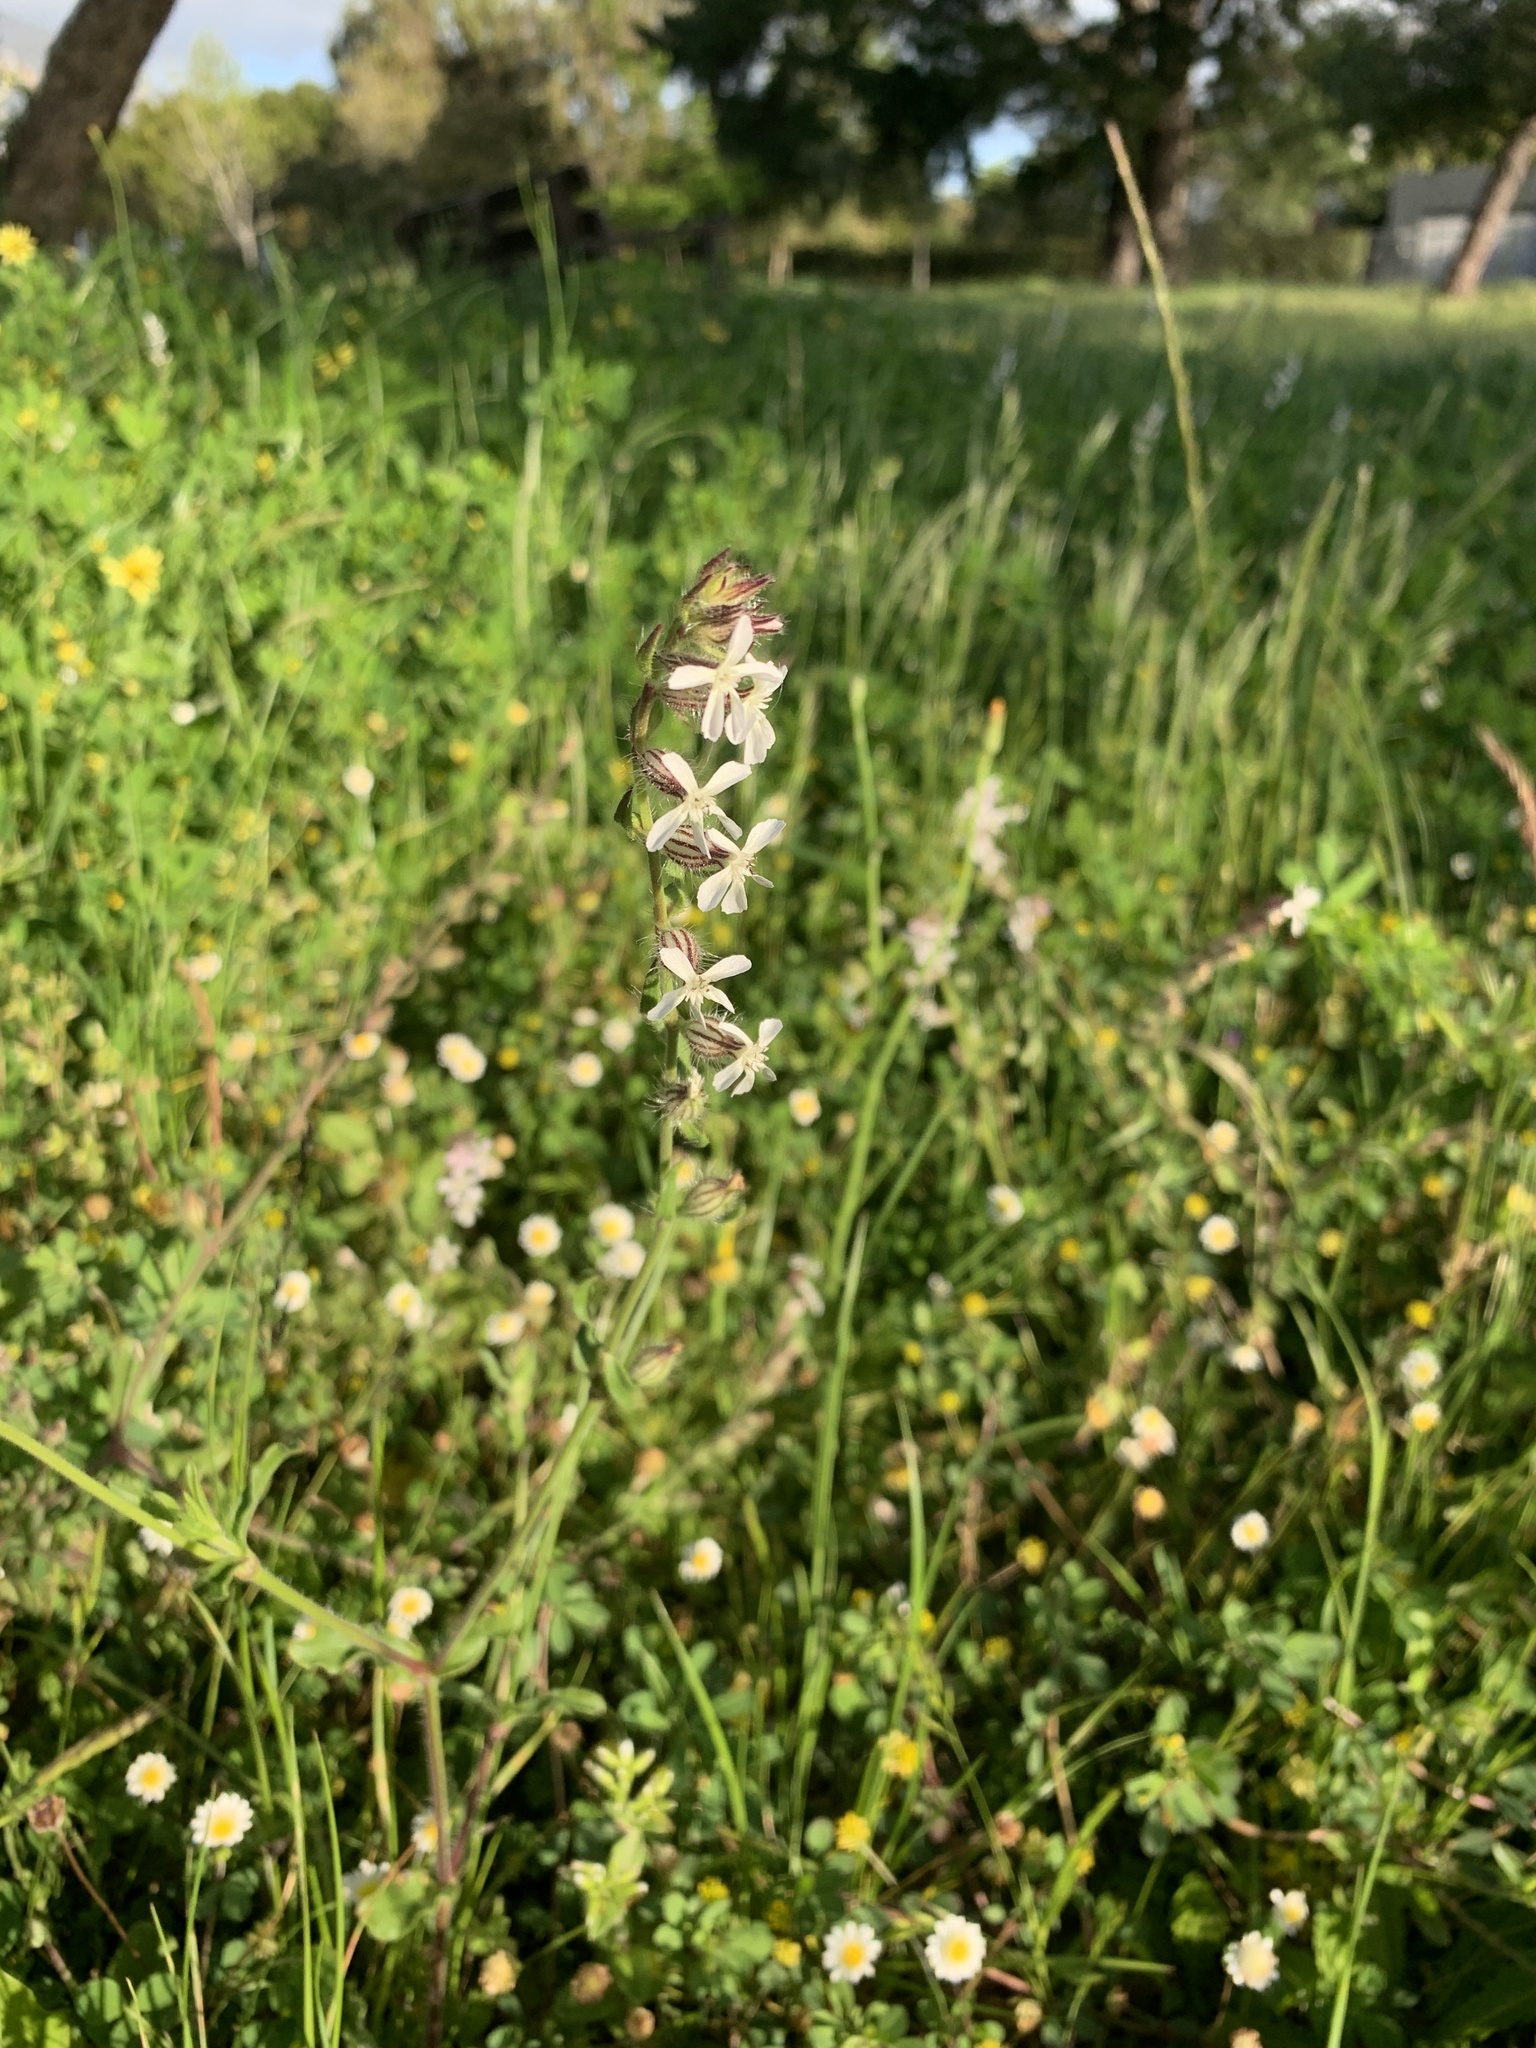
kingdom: Plantae
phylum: Tracheophyta
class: Magnoliopsida
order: Caryophyllales
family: Caryophyllaceae
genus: Silene
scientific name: Silene gallica
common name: Small-flowered catchfly
